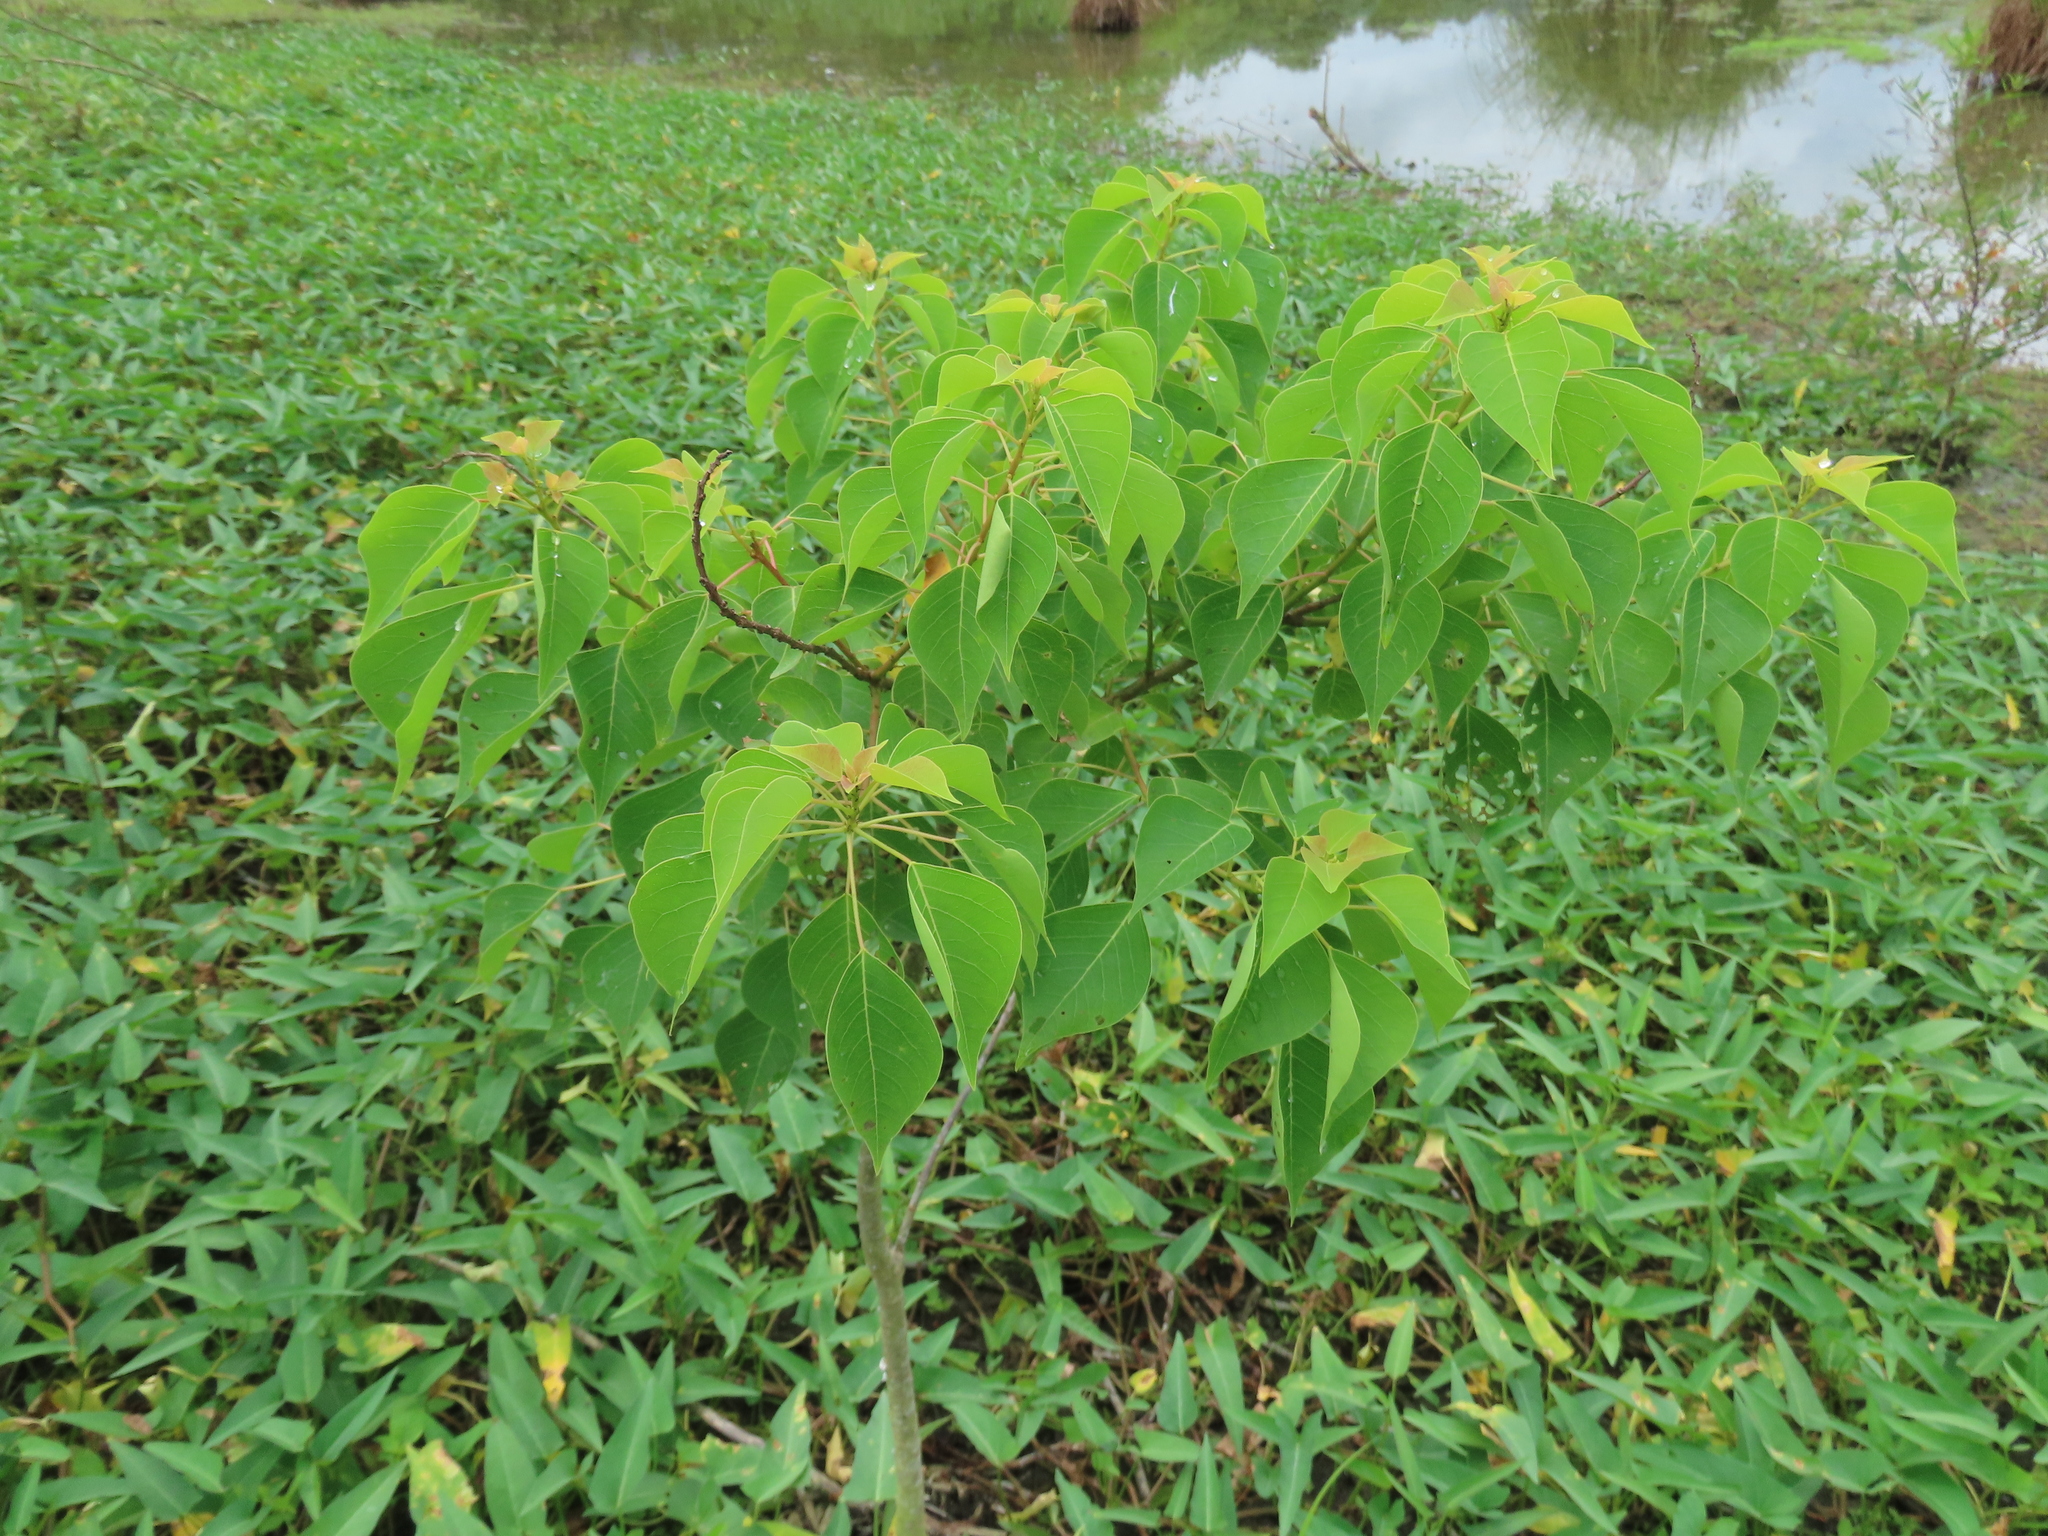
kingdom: Plantae
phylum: Tracheophyta
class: Magnoliopsida
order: Malpighiales
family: Euphorbiaceae
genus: Triadica
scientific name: Triadica sebifera
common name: Chinese tallow
